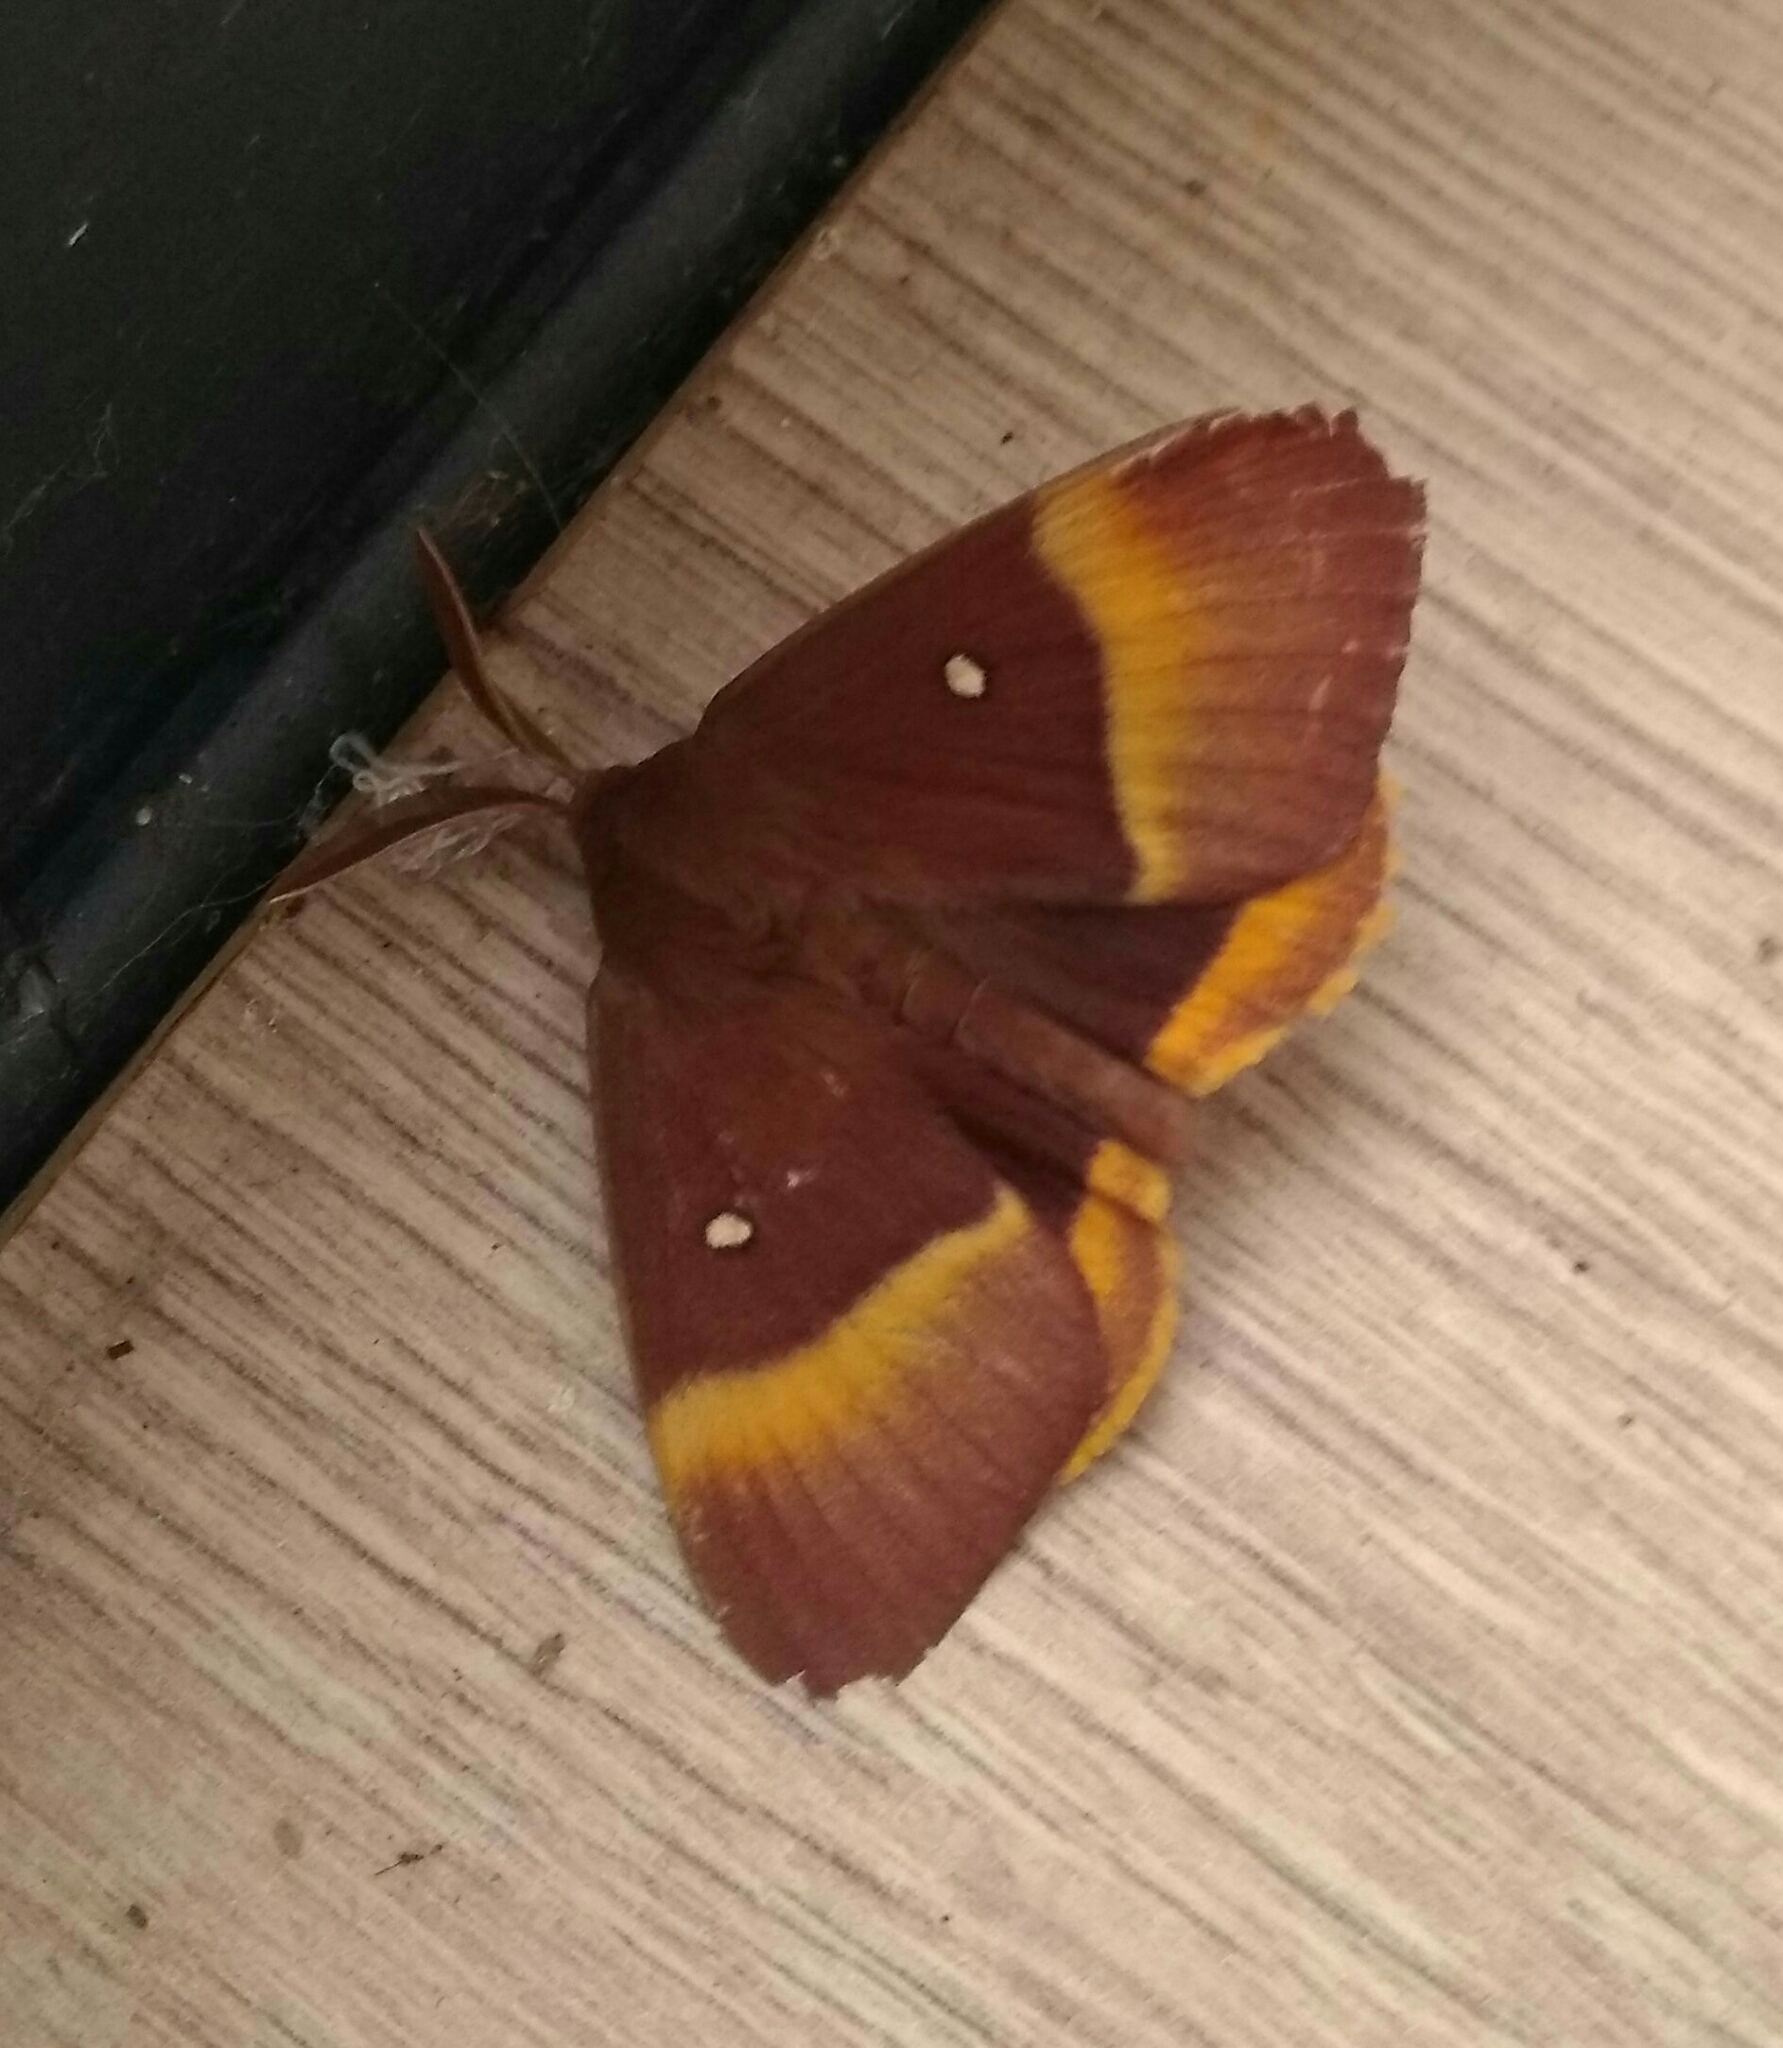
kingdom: Animalia
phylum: Arthropoda
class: Insecta
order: Lepidoptera
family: Lasiocampidae
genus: Lasiocampa
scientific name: Lasiocampa quercus
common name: Oak eggar
